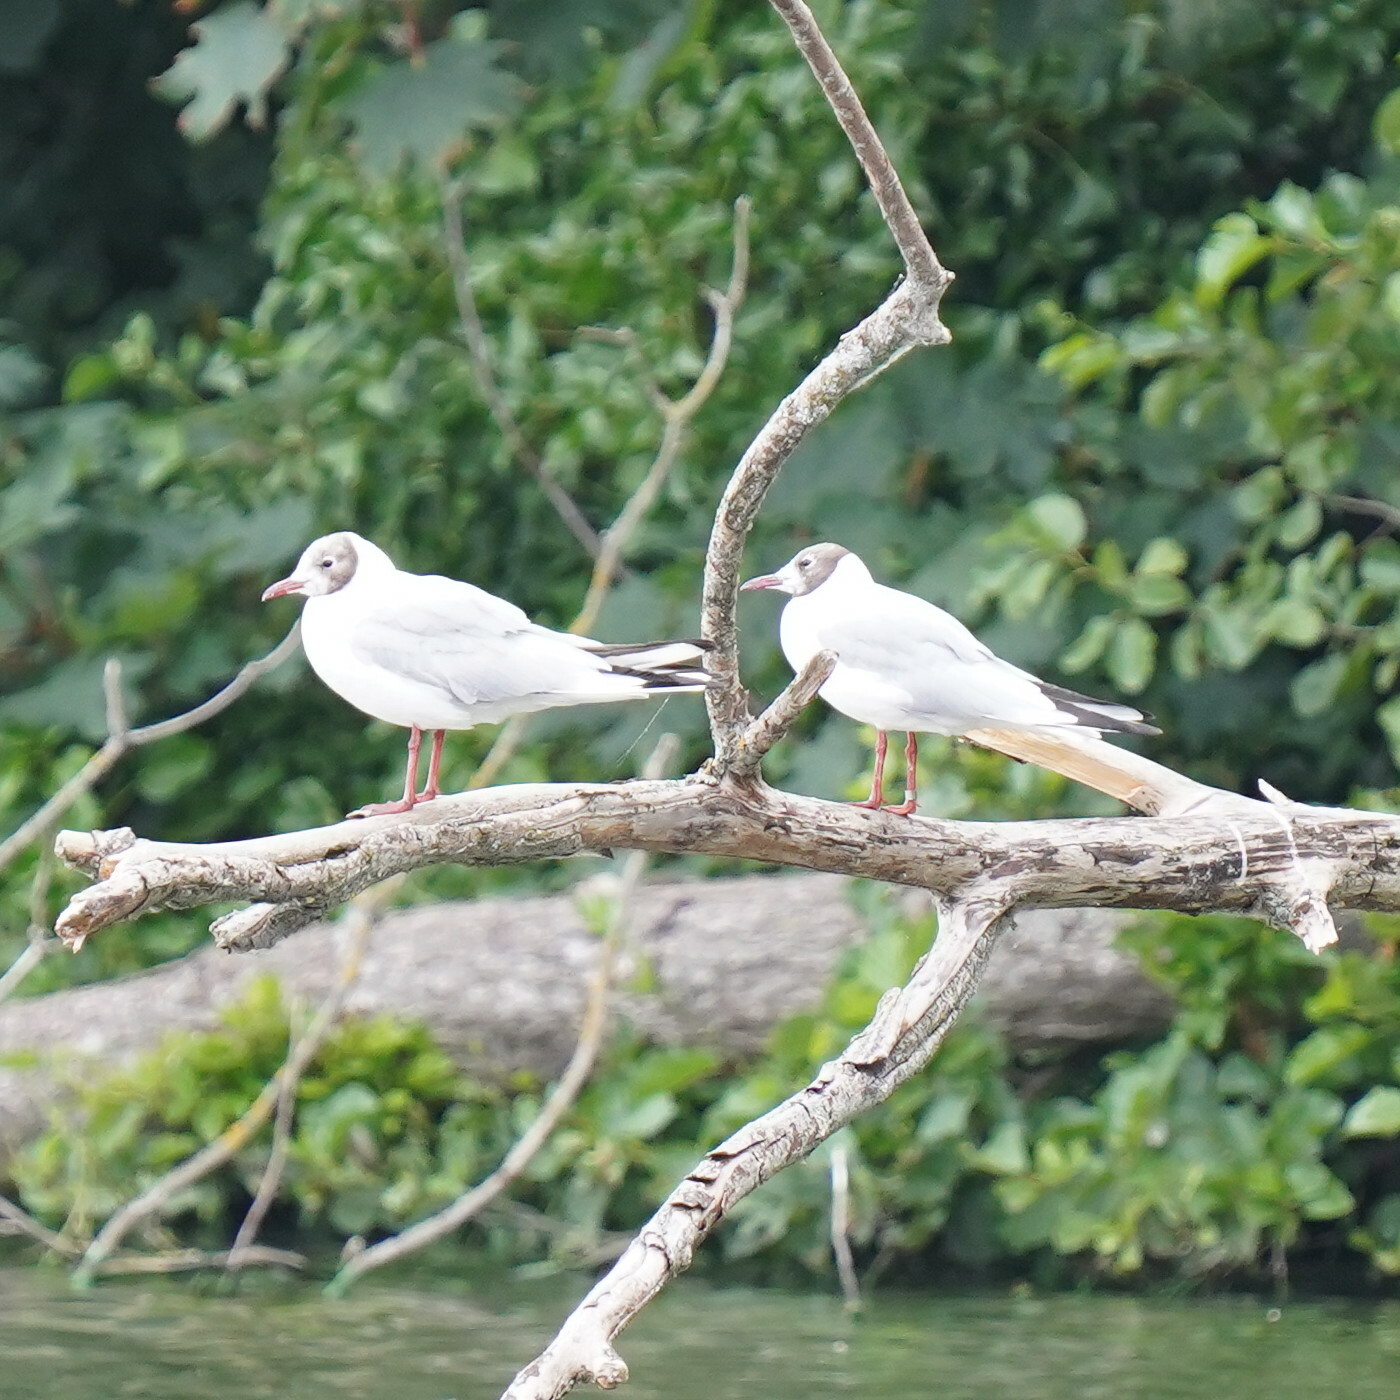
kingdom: Animalia
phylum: Chordata
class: Aves
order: Charadriiformes
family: Laridae
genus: Chroicocephalus
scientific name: Chroicocephalus ridibundus
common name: Black-headed gull
